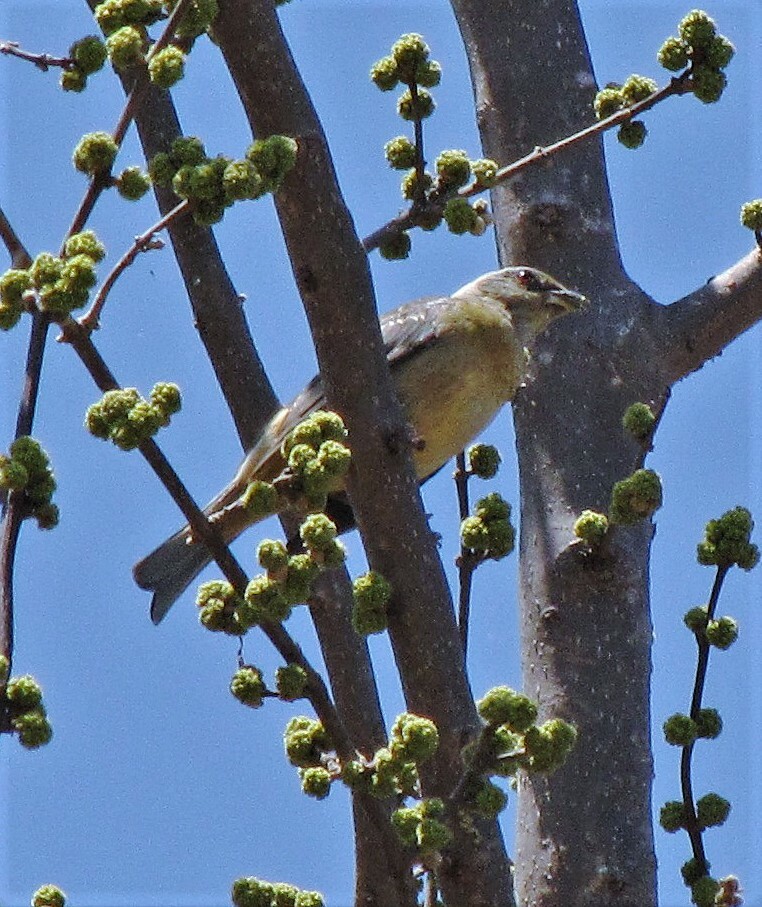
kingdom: Animalia
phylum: Chordata
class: Aves
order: Passeriformes
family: Thraupidae
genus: Rauenia
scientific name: Rauenia bonariensis
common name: Blue-and-yellow tanager
